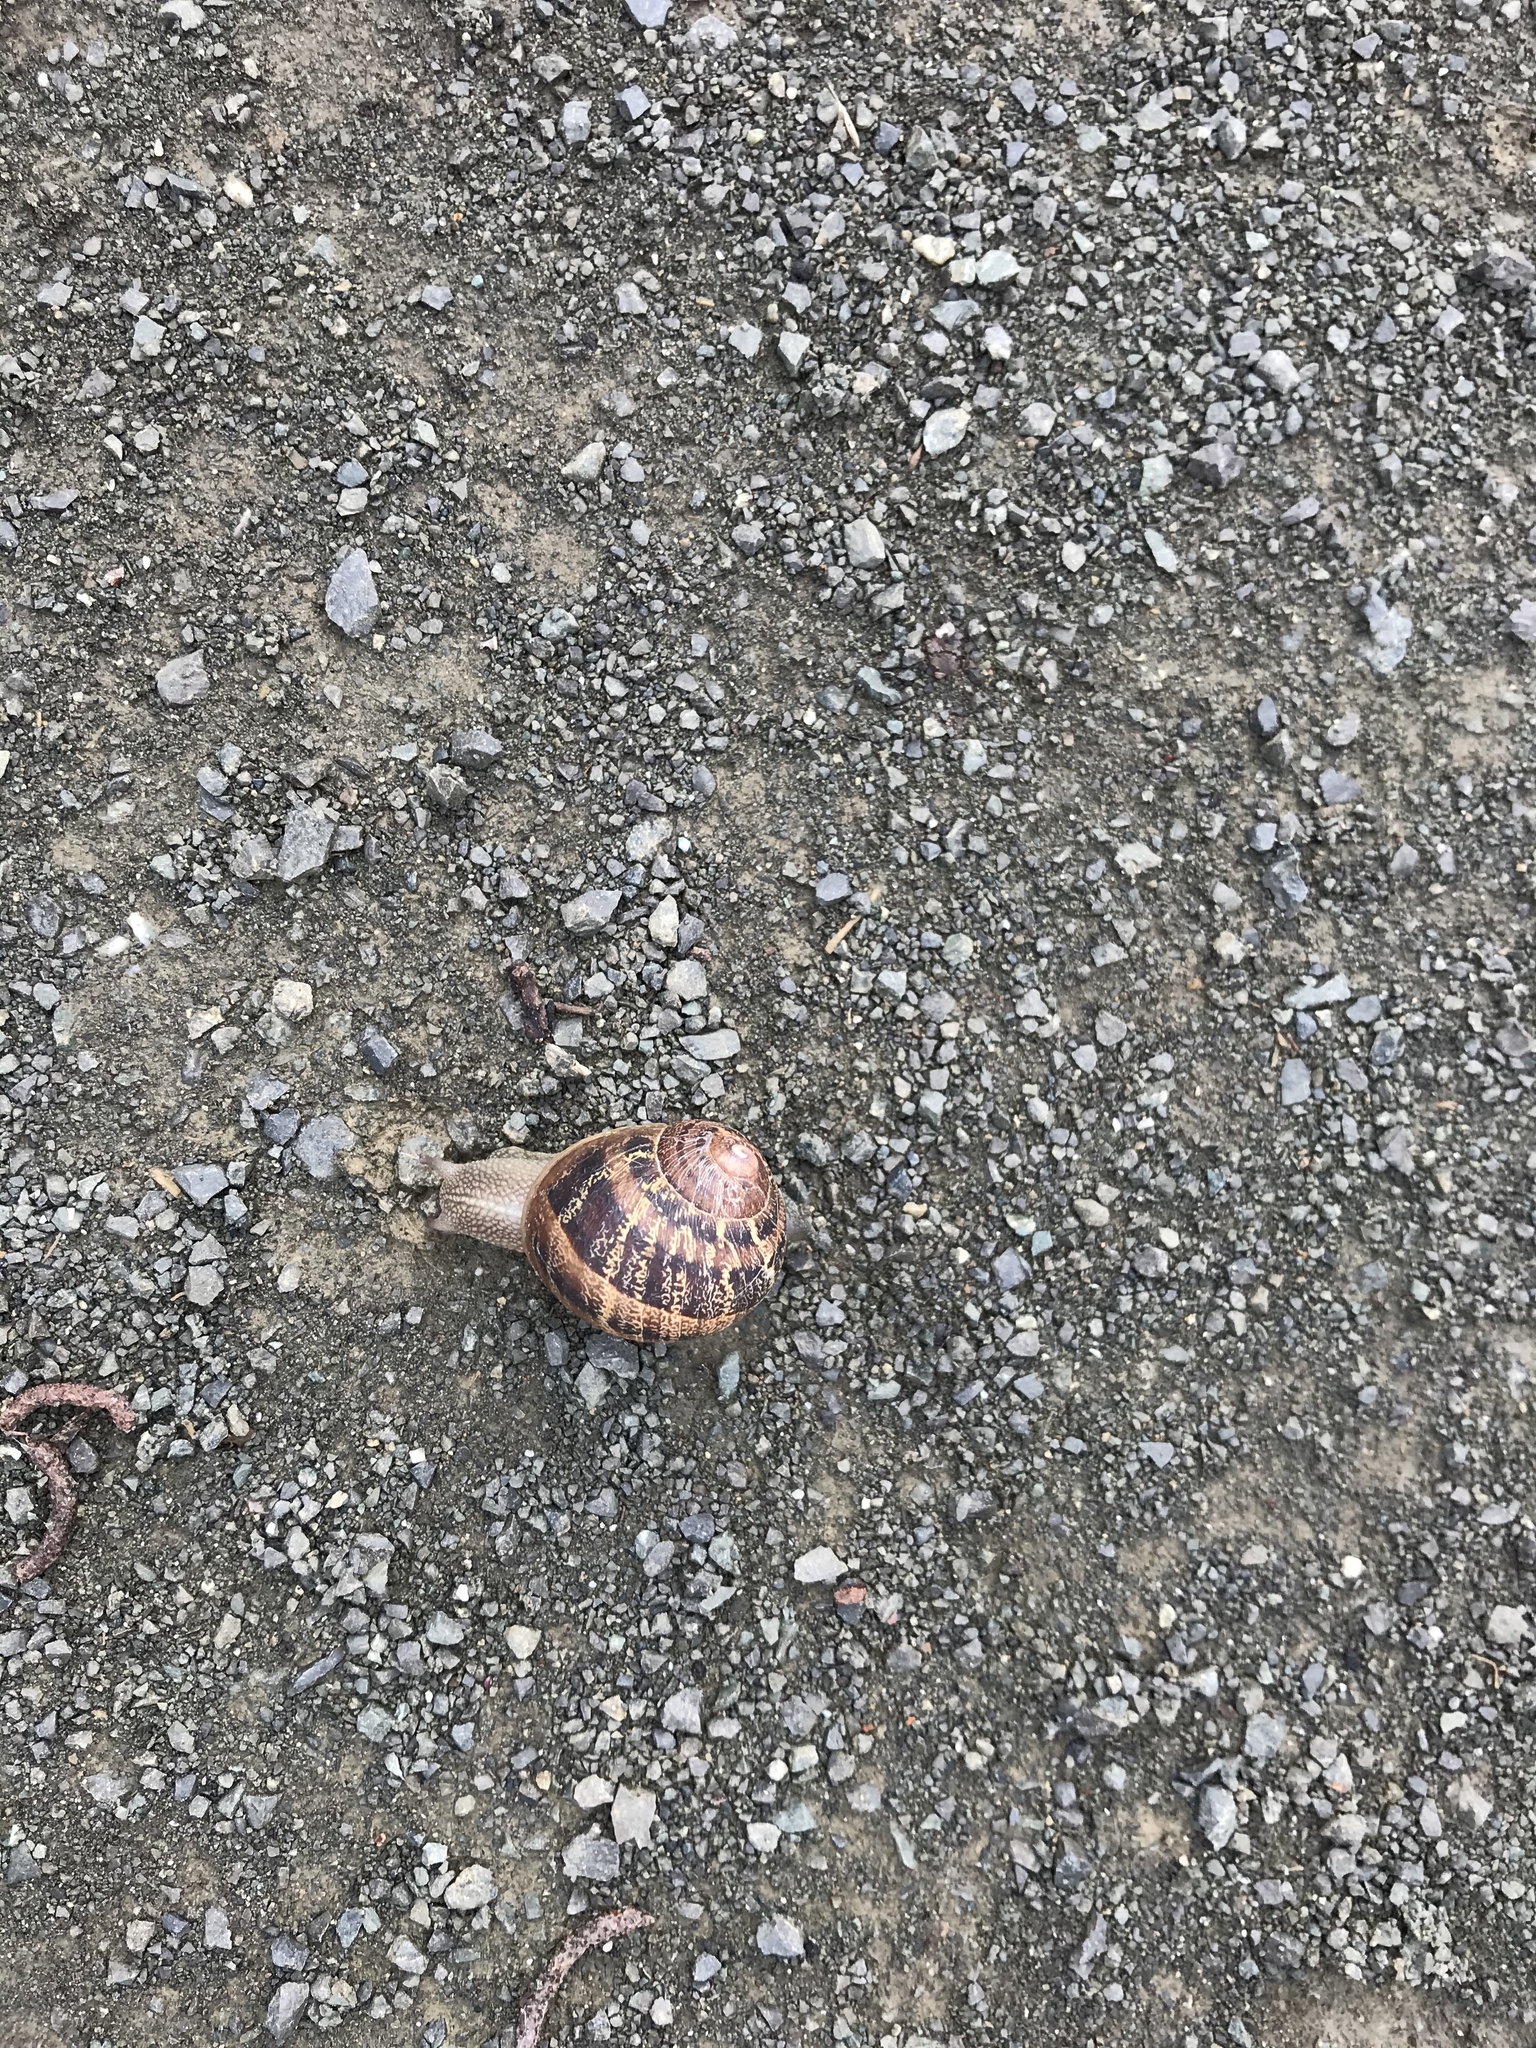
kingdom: Animalia
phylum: Mollusca
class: Gastropoda
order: Stylommatophora
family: Helicidae
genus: Cornu
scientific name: Cornu aspersum
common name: Brown garden snail
